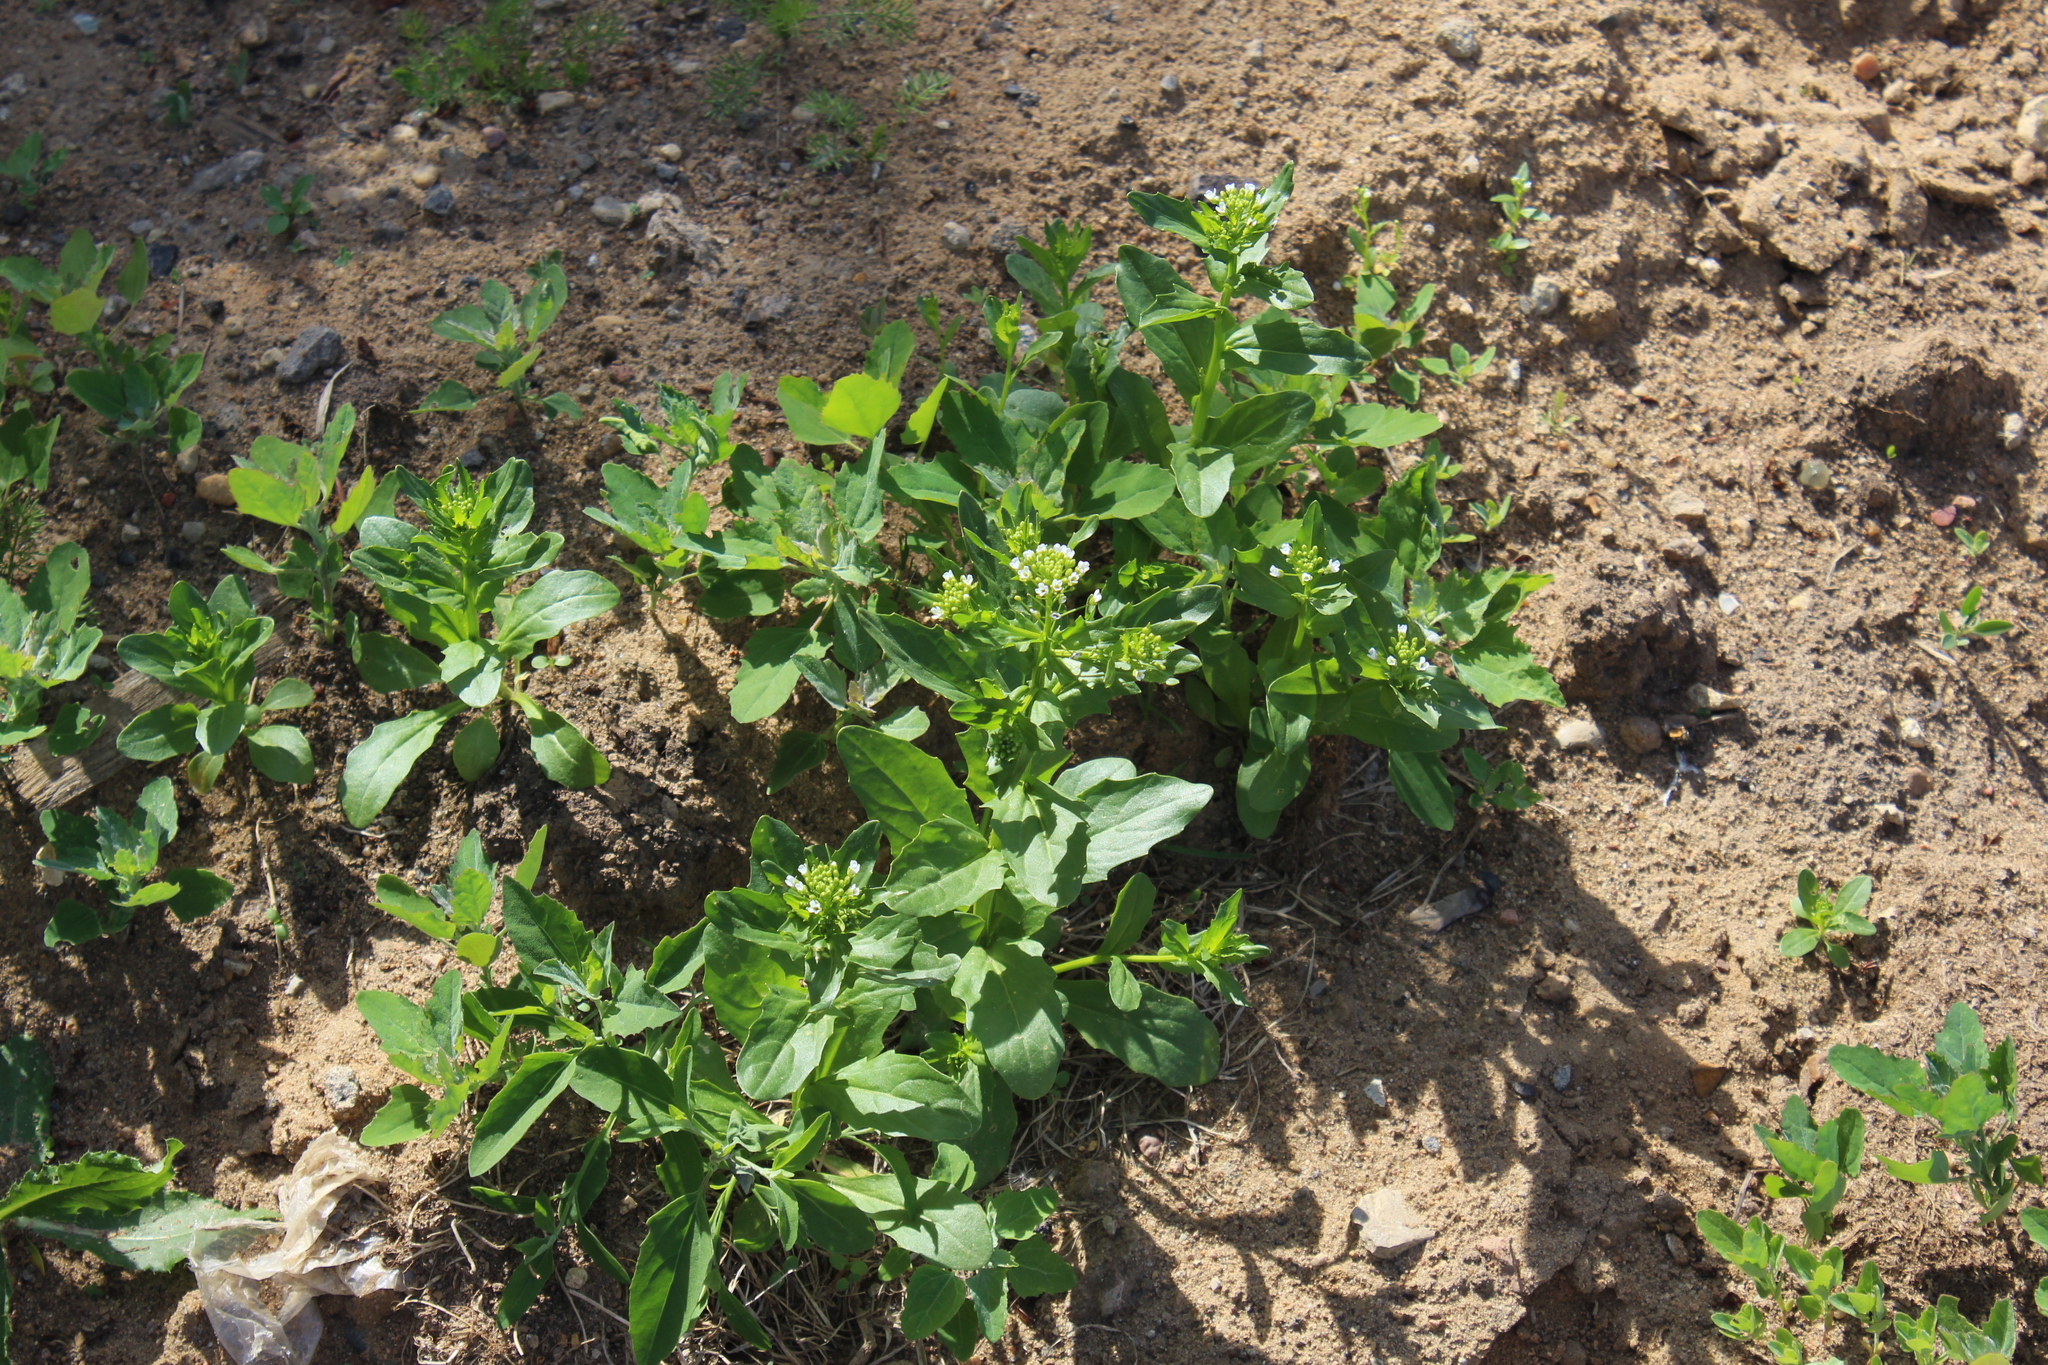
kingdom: Plantae
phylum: Tracheophyta
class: Magnoliopsida
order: Brassicales
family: Brassicaceae
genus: Thlaspi
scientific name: Thlaspi arvense
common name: Field pennycress
